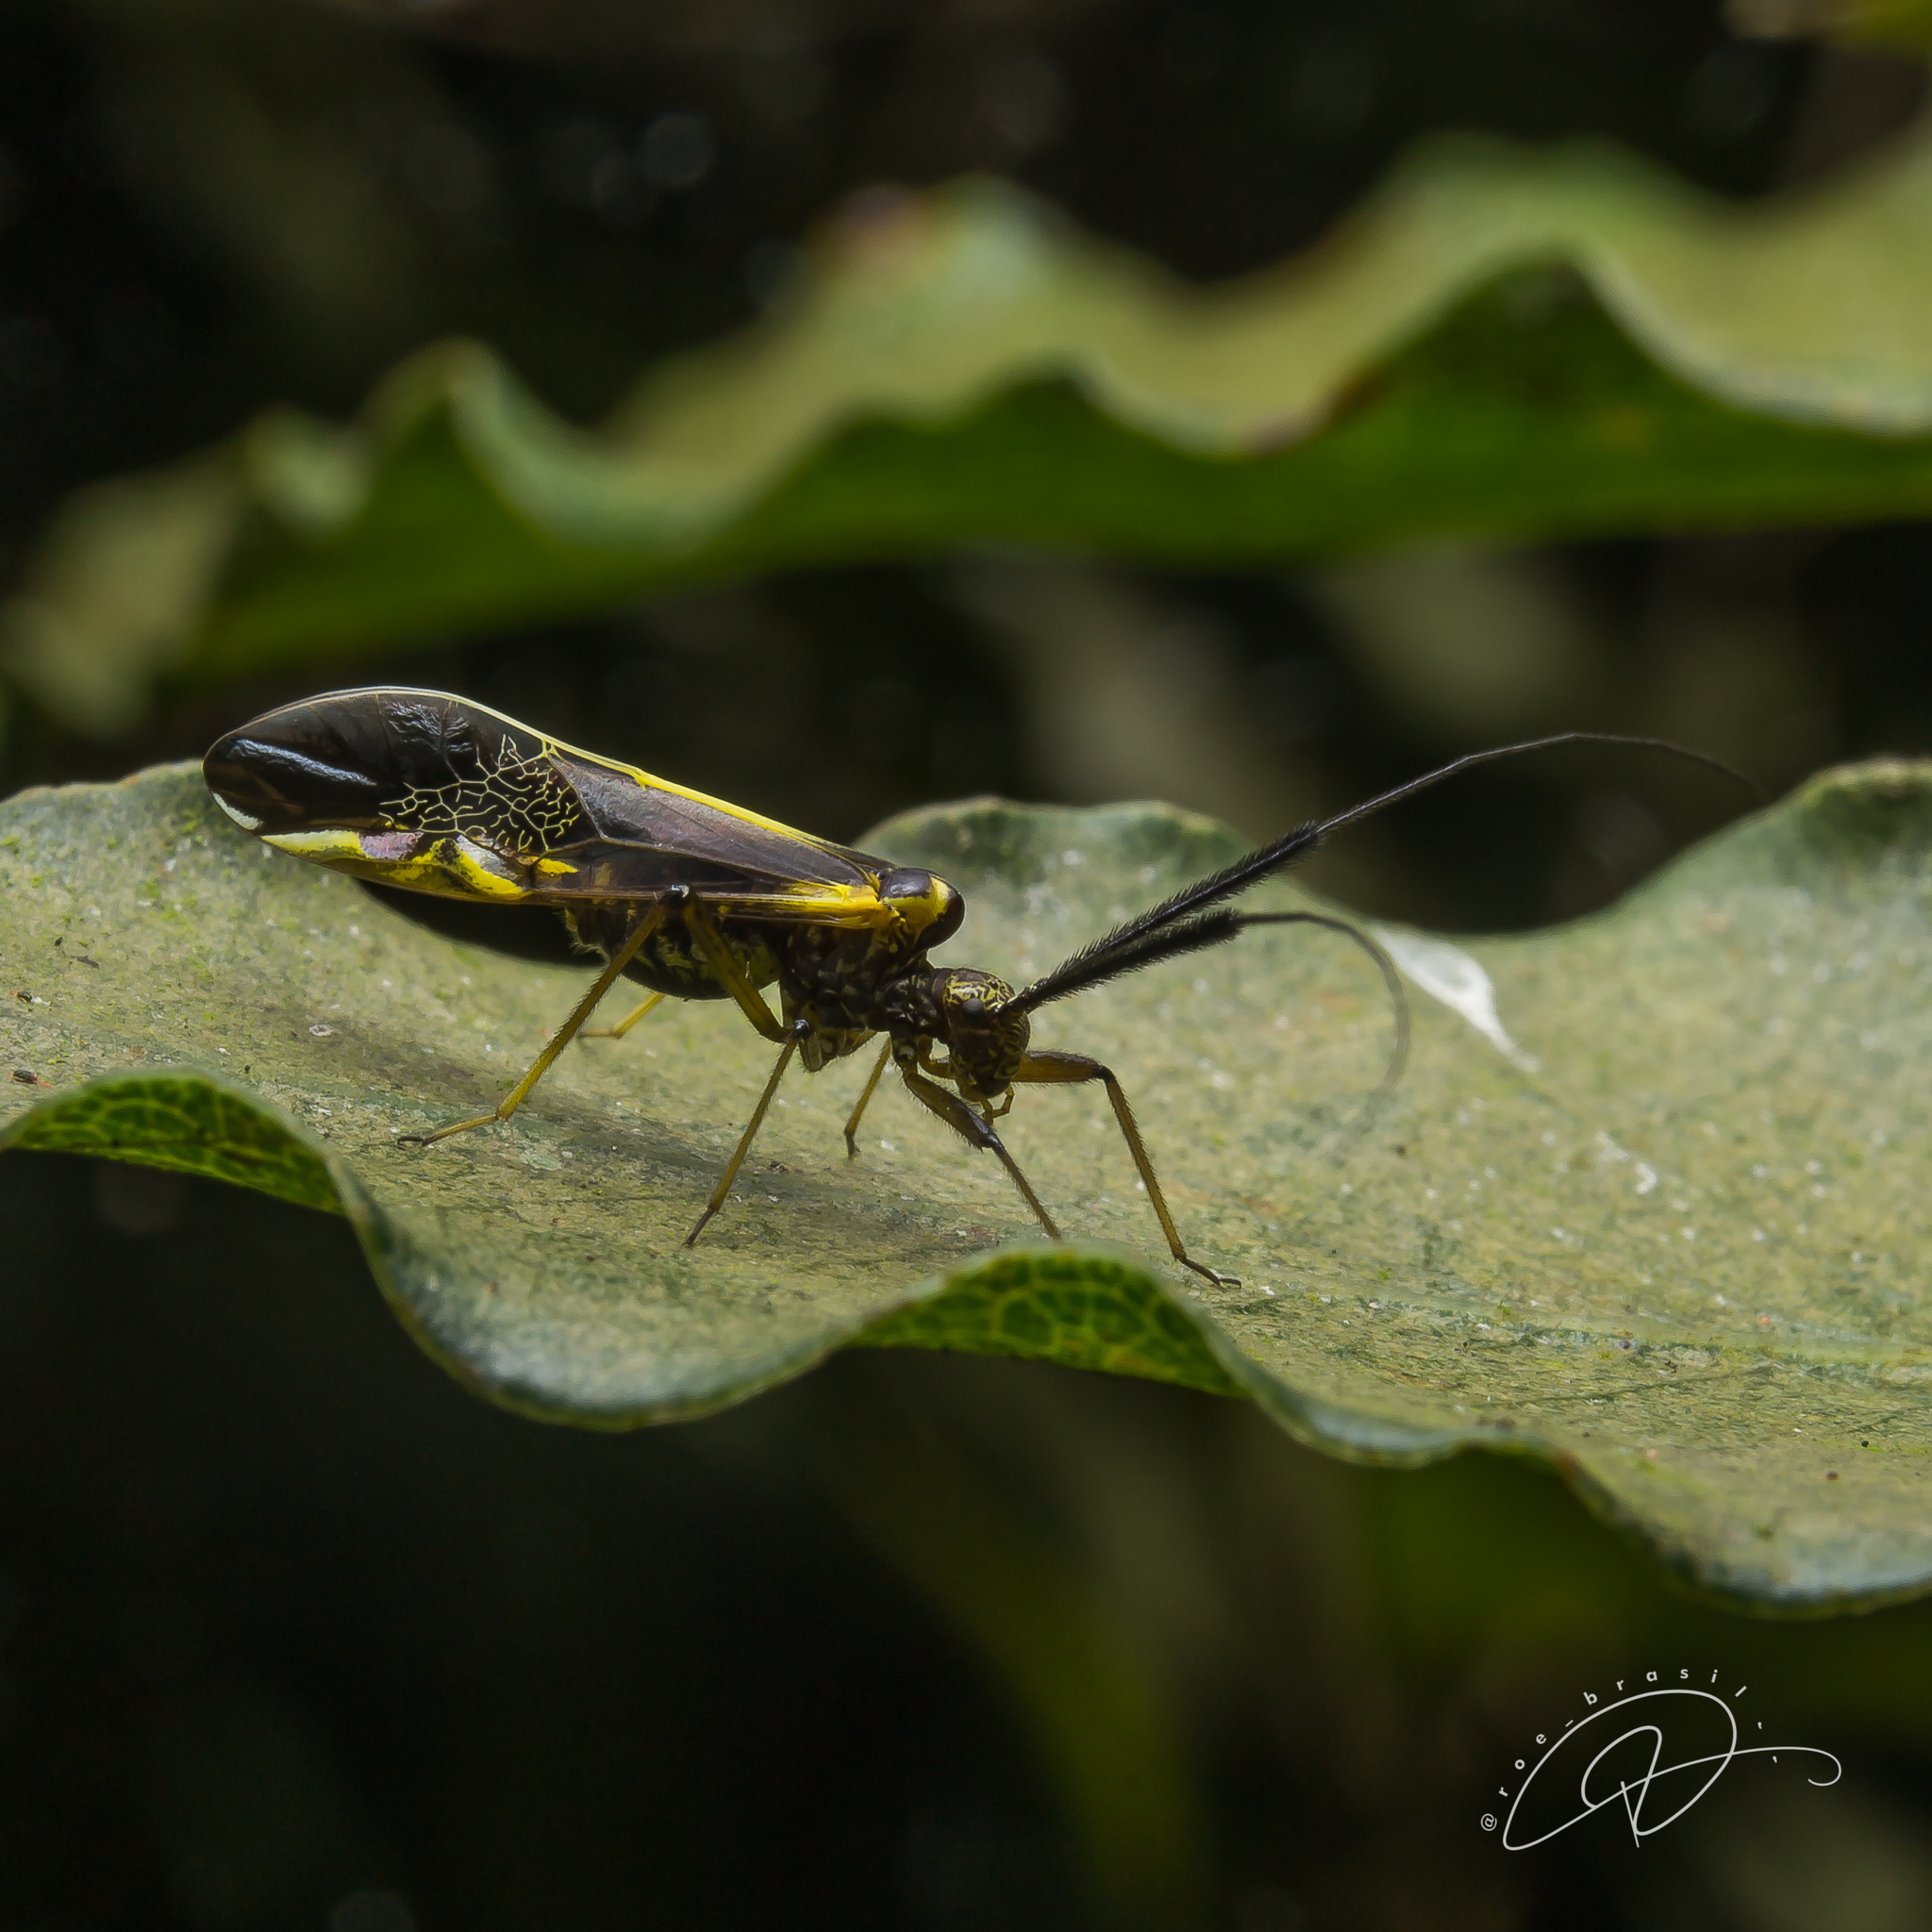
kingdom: Animalia
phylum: Arthropoda
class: Insecta
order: Psocodea
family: Psocidae
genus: Dictyopsocus
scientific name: Dictyopsocus pennicornis
